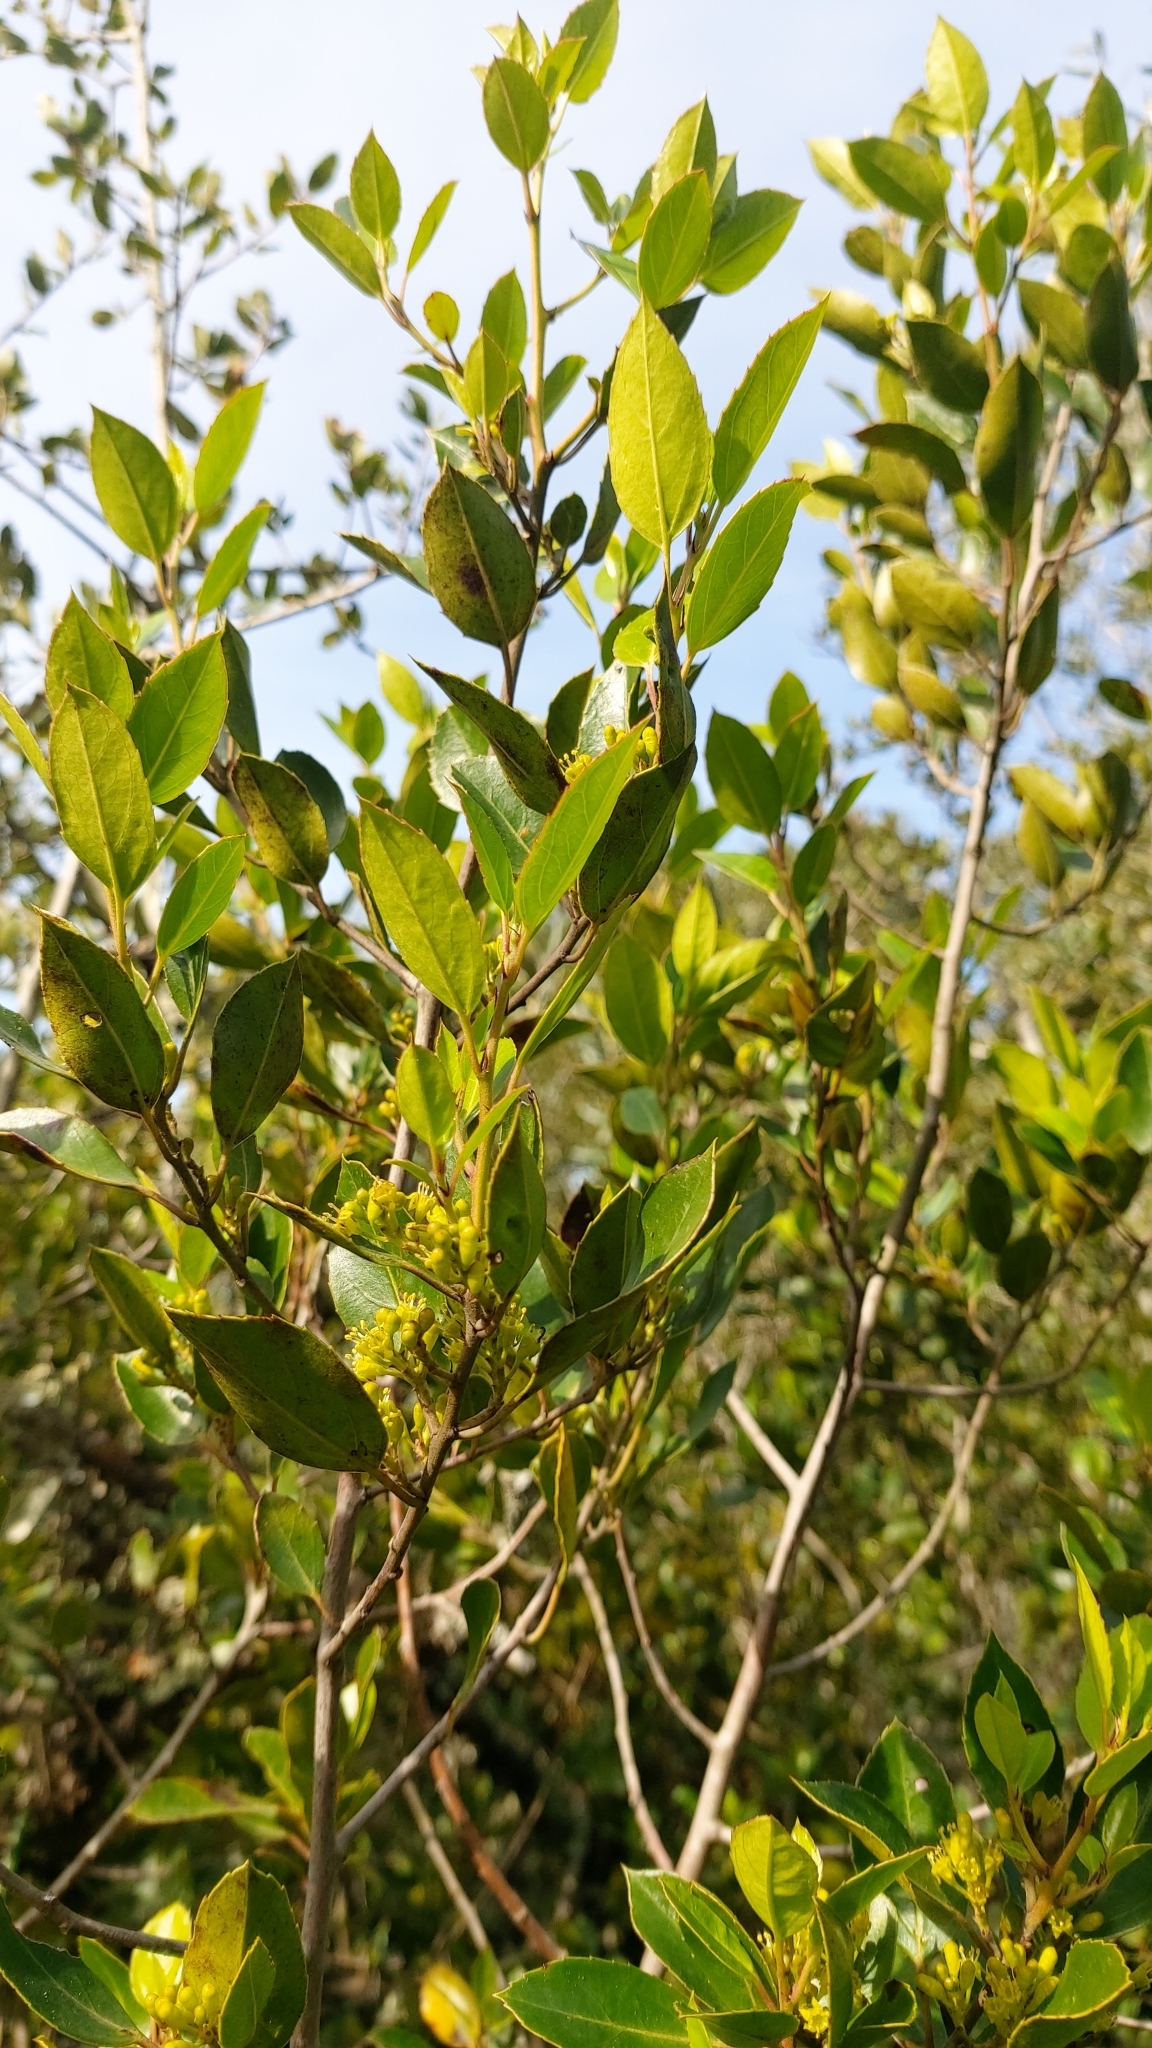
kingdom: Plantae
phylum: Tracheophyta
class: Magnoliopsida
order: Rosales
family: Rhamnaceae
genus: Rhamnus
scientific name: Rhamnus alaternus
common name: Mediterranean buckthorn
